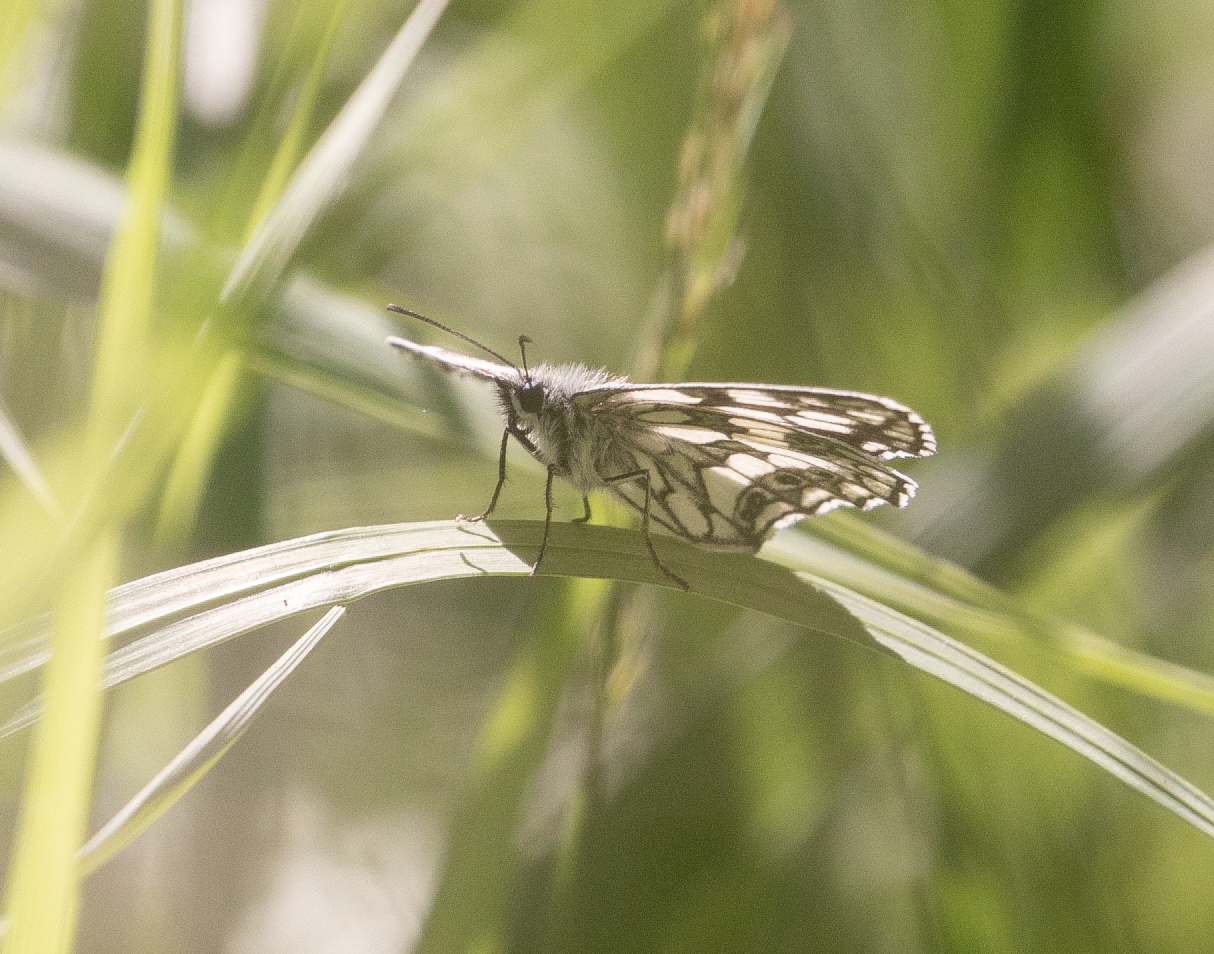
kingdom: Animalia
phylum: Arthropoda
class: Insecta
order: Lepidoptera
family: Nymphalidae
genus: Melanargia
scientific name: Melanargia galathea
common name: Marbled white
